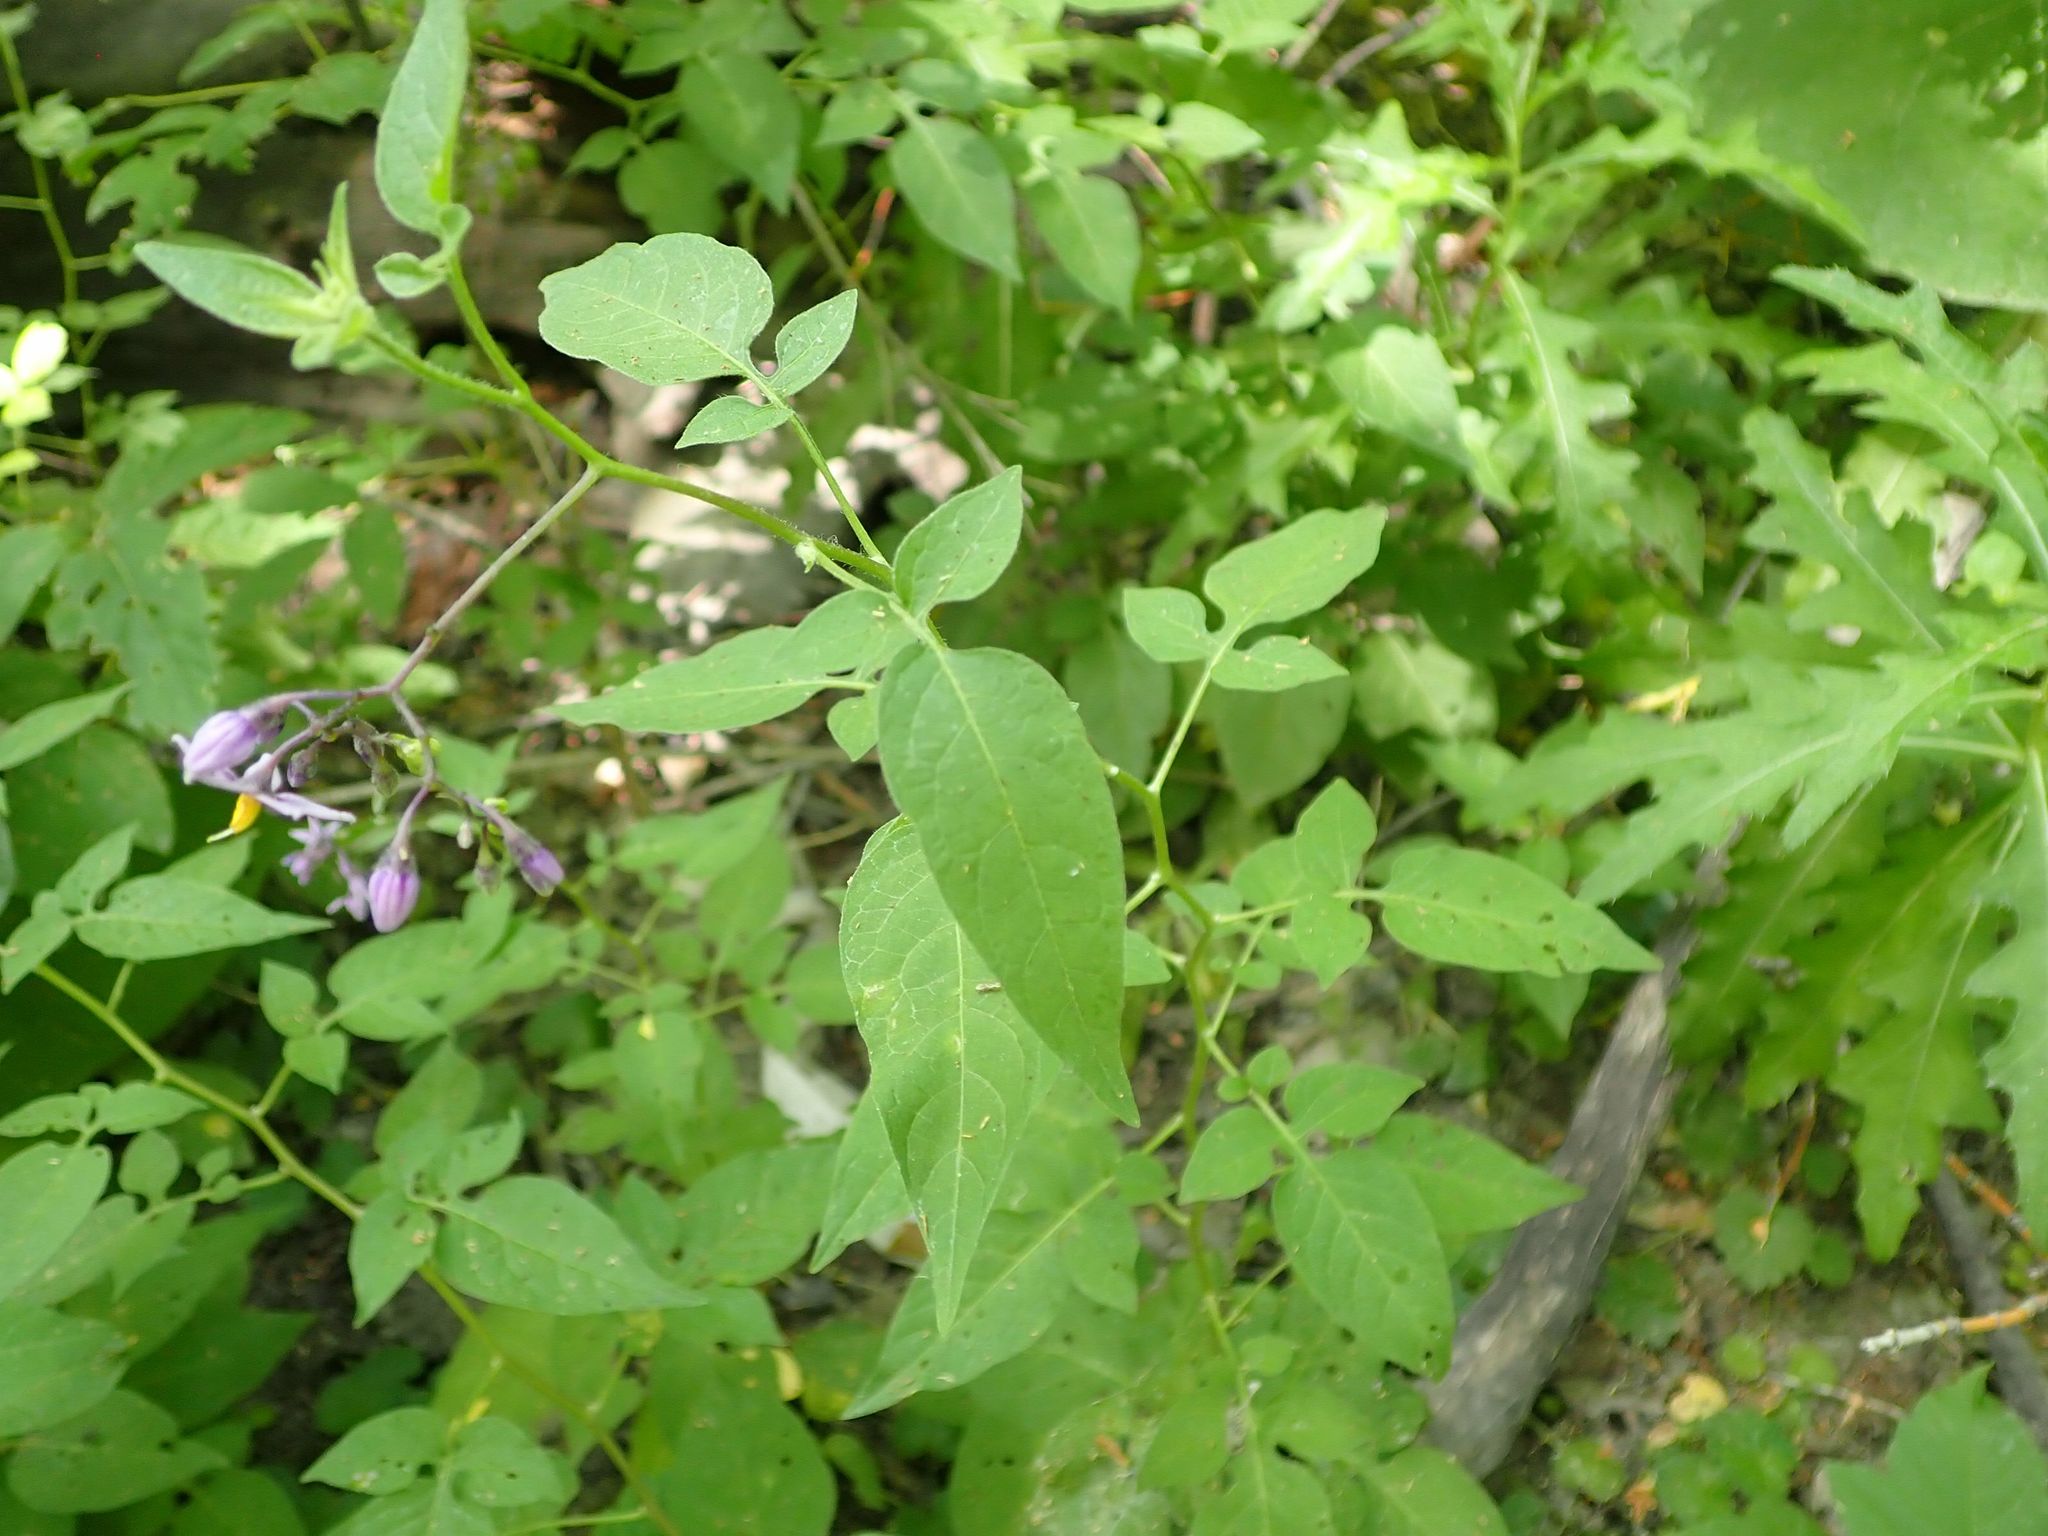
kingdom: Plantae
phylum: Tracheophyta
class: Magnoliopsida
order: Solanales
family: Solanaceae
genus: Solanum
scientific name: Solanum dulcamara
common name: Climbing nightshade
